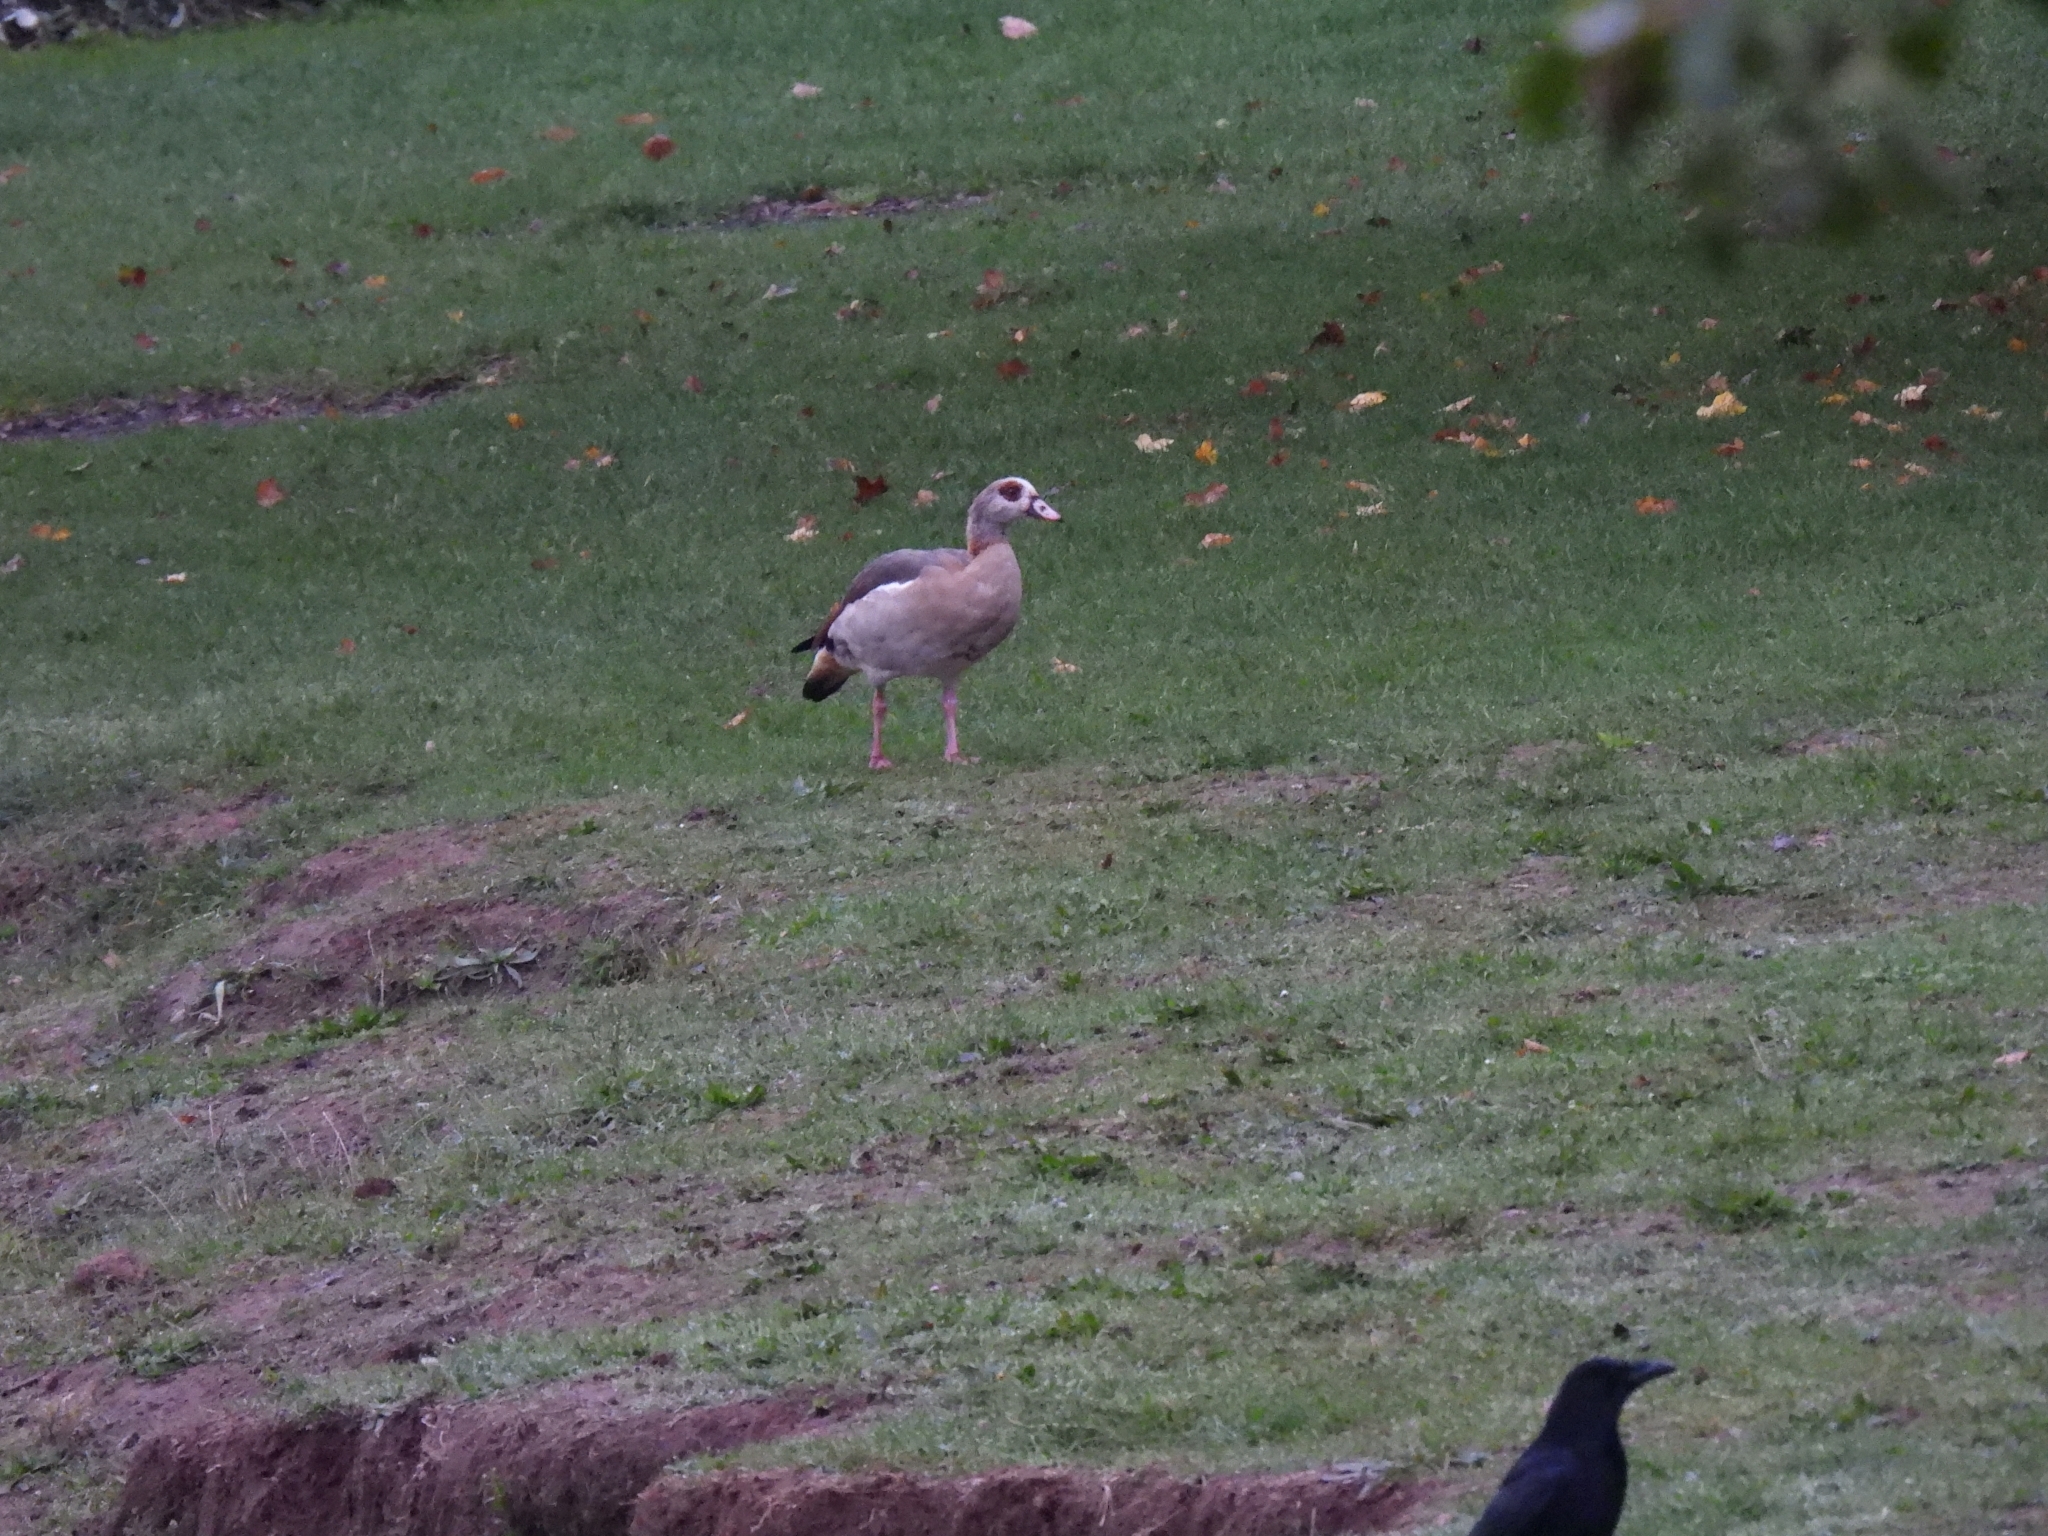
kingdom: Animalia
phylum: Chordata
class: Aves
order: Anseriformes
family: Anatidae
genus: Alopochen
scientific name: Alopochen aegyptiaca
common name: Egyptian goose
